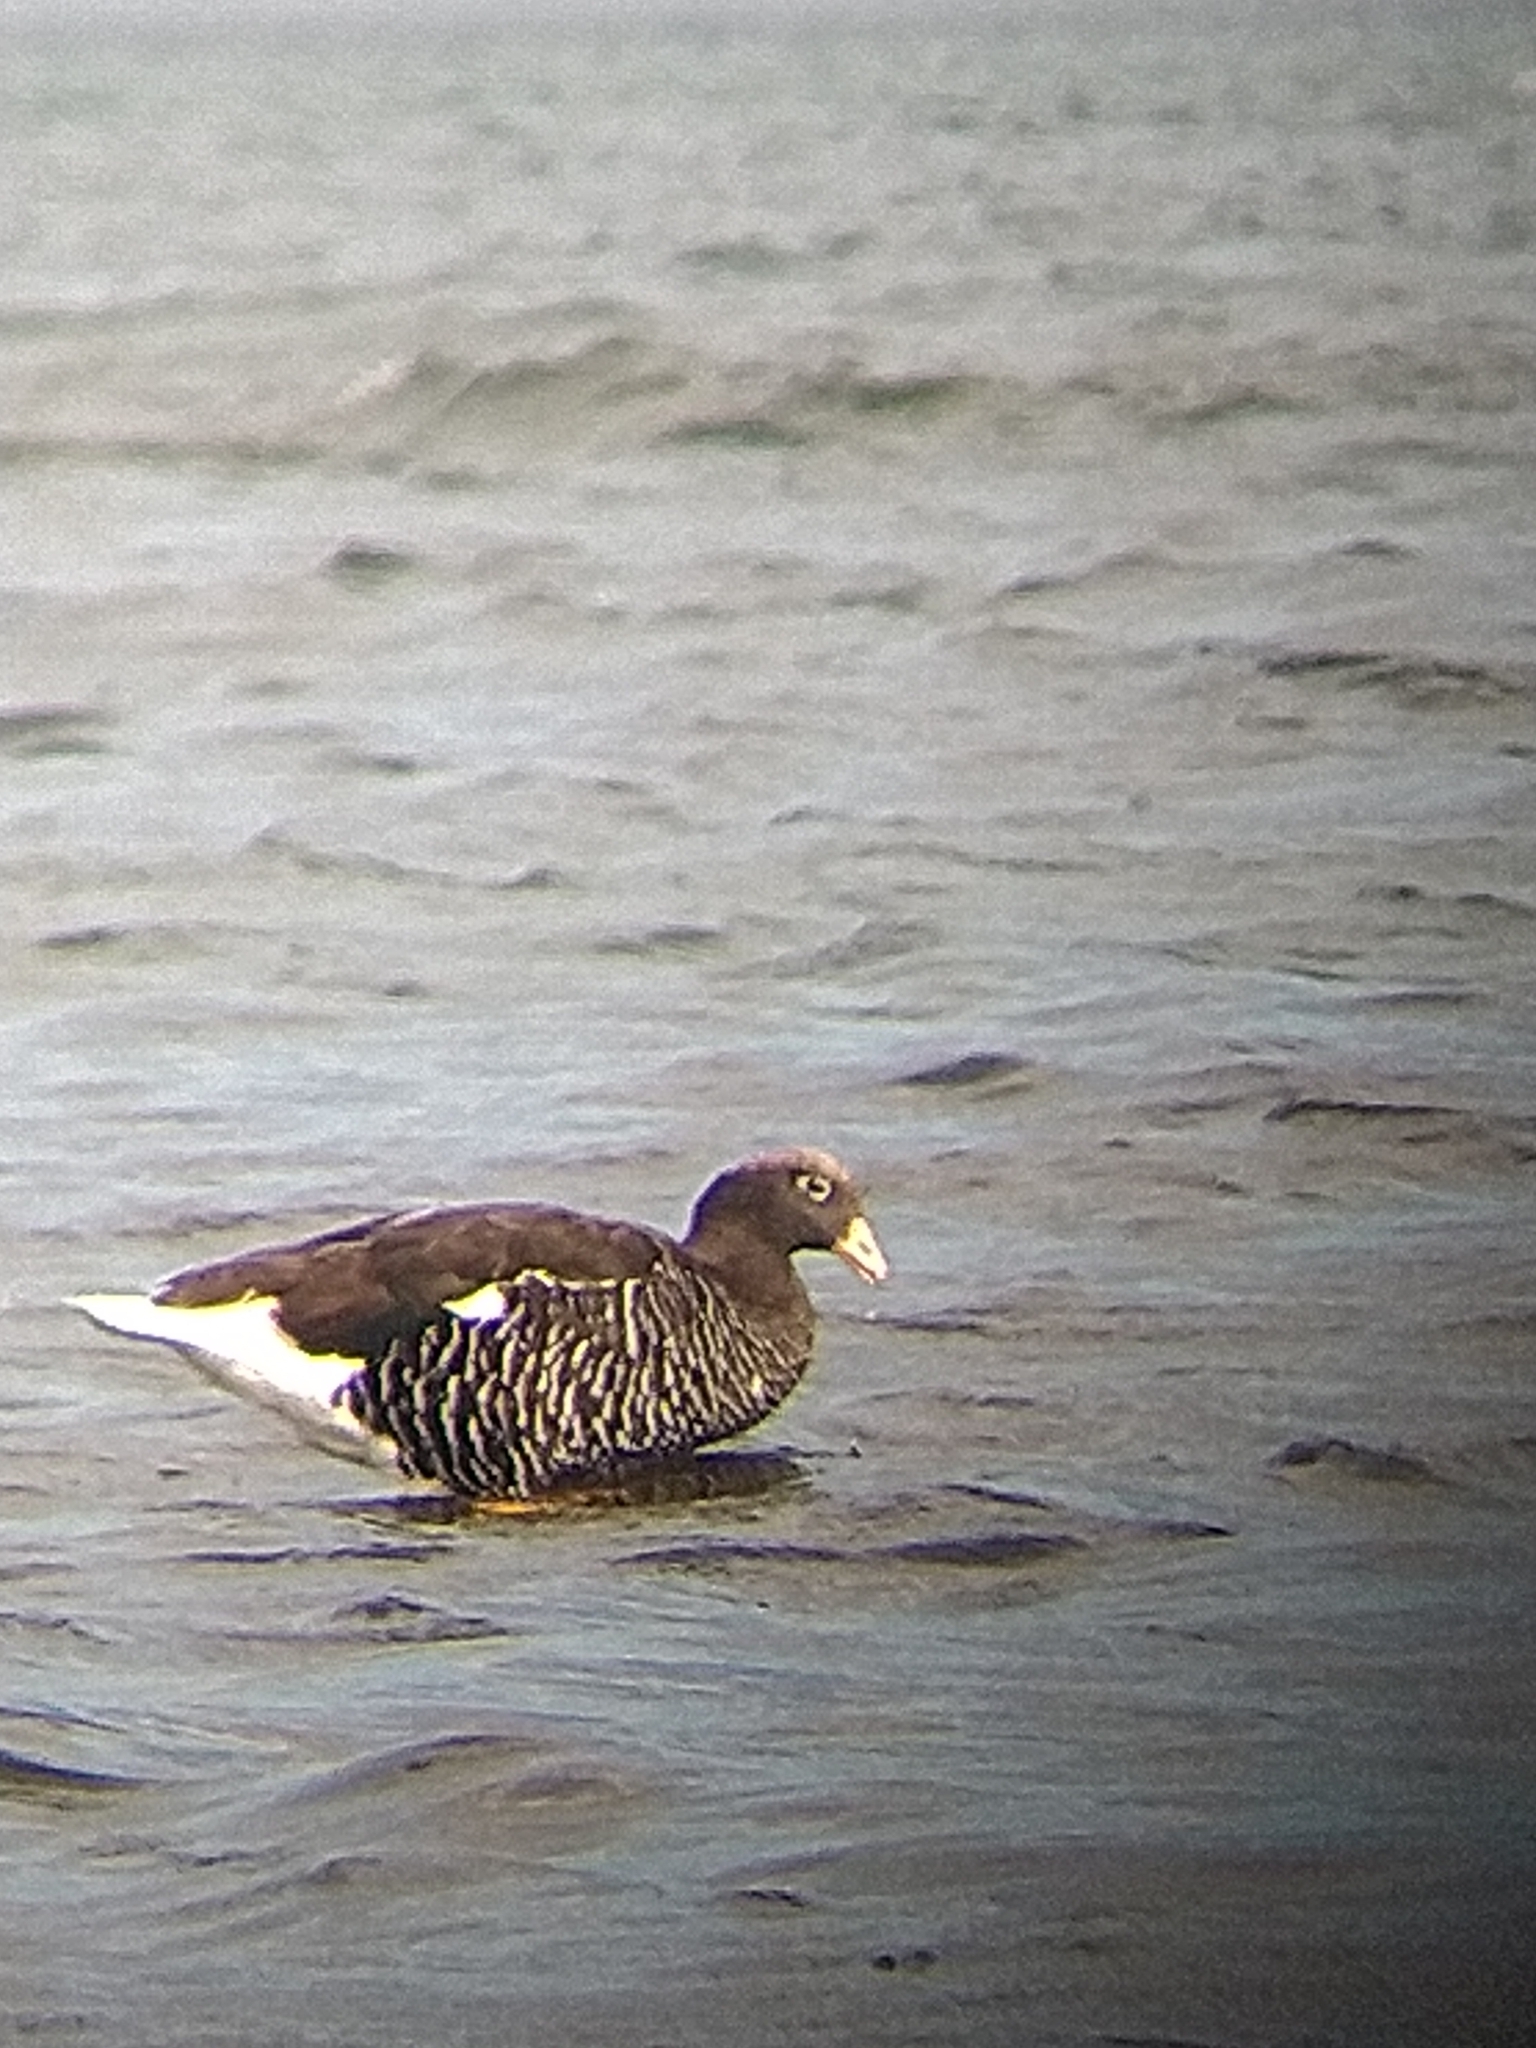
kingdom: Animalia
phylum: Chordata
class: Aves
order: Anseriformes
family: Anatidae
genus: Chloephaga
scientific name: Chloephaga hybrida
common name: Kelp goose
